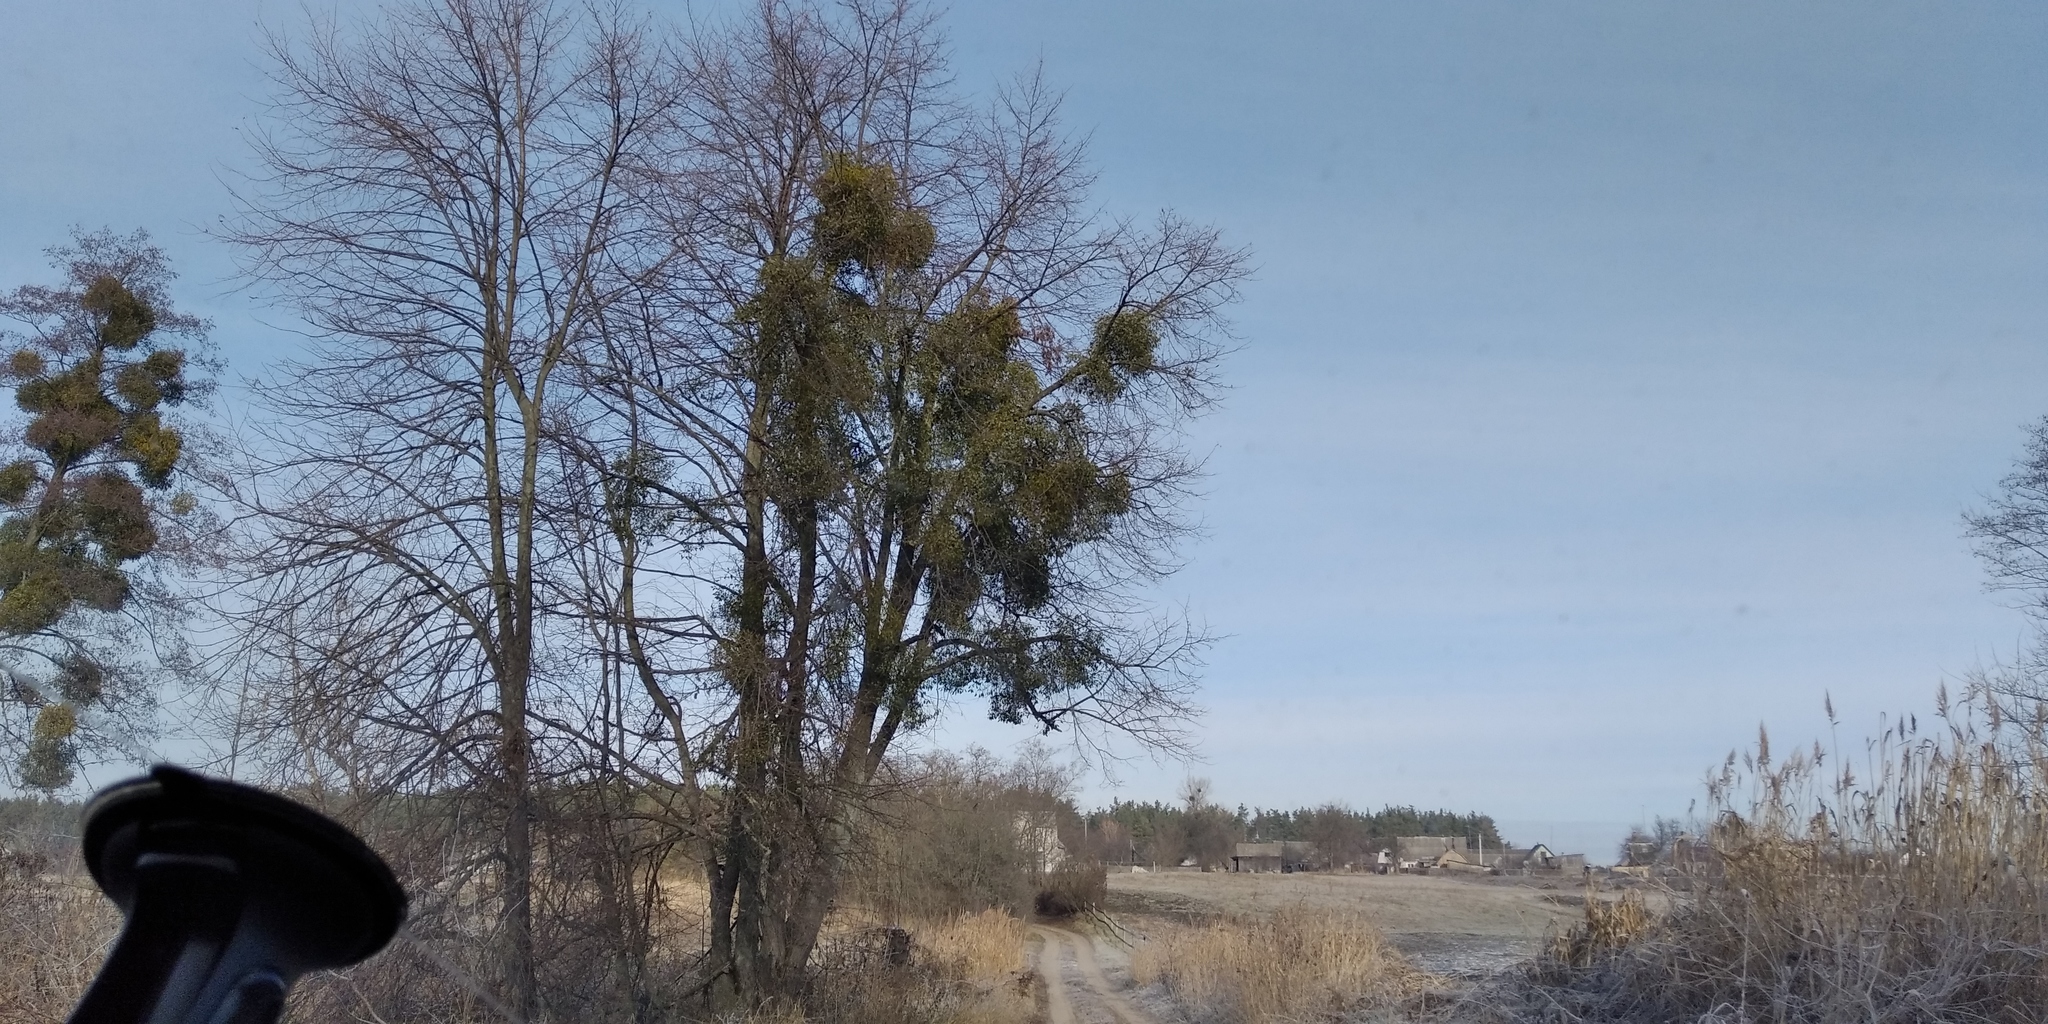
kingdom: Plantae
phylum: Tracheophyta
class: Magnoliopsida
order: Santalales
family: Viscaceae
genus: Viscum
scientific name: Viscum album
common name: Mistletoe
